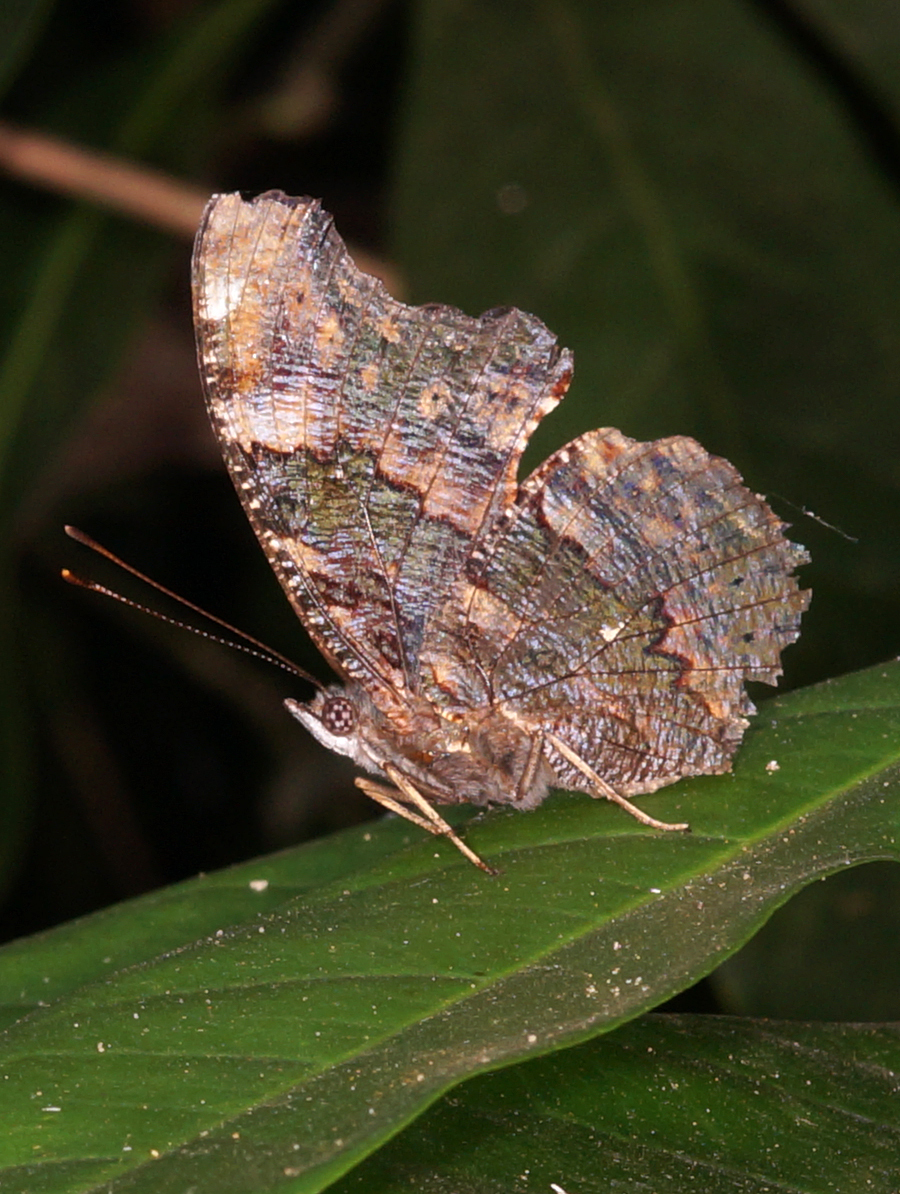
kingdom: Animalia
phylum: Arthropoda
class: Insecta
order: Lepidoptera
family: Nymphalidae
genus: Vanessa
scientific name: Vanessa Kaniska canace
